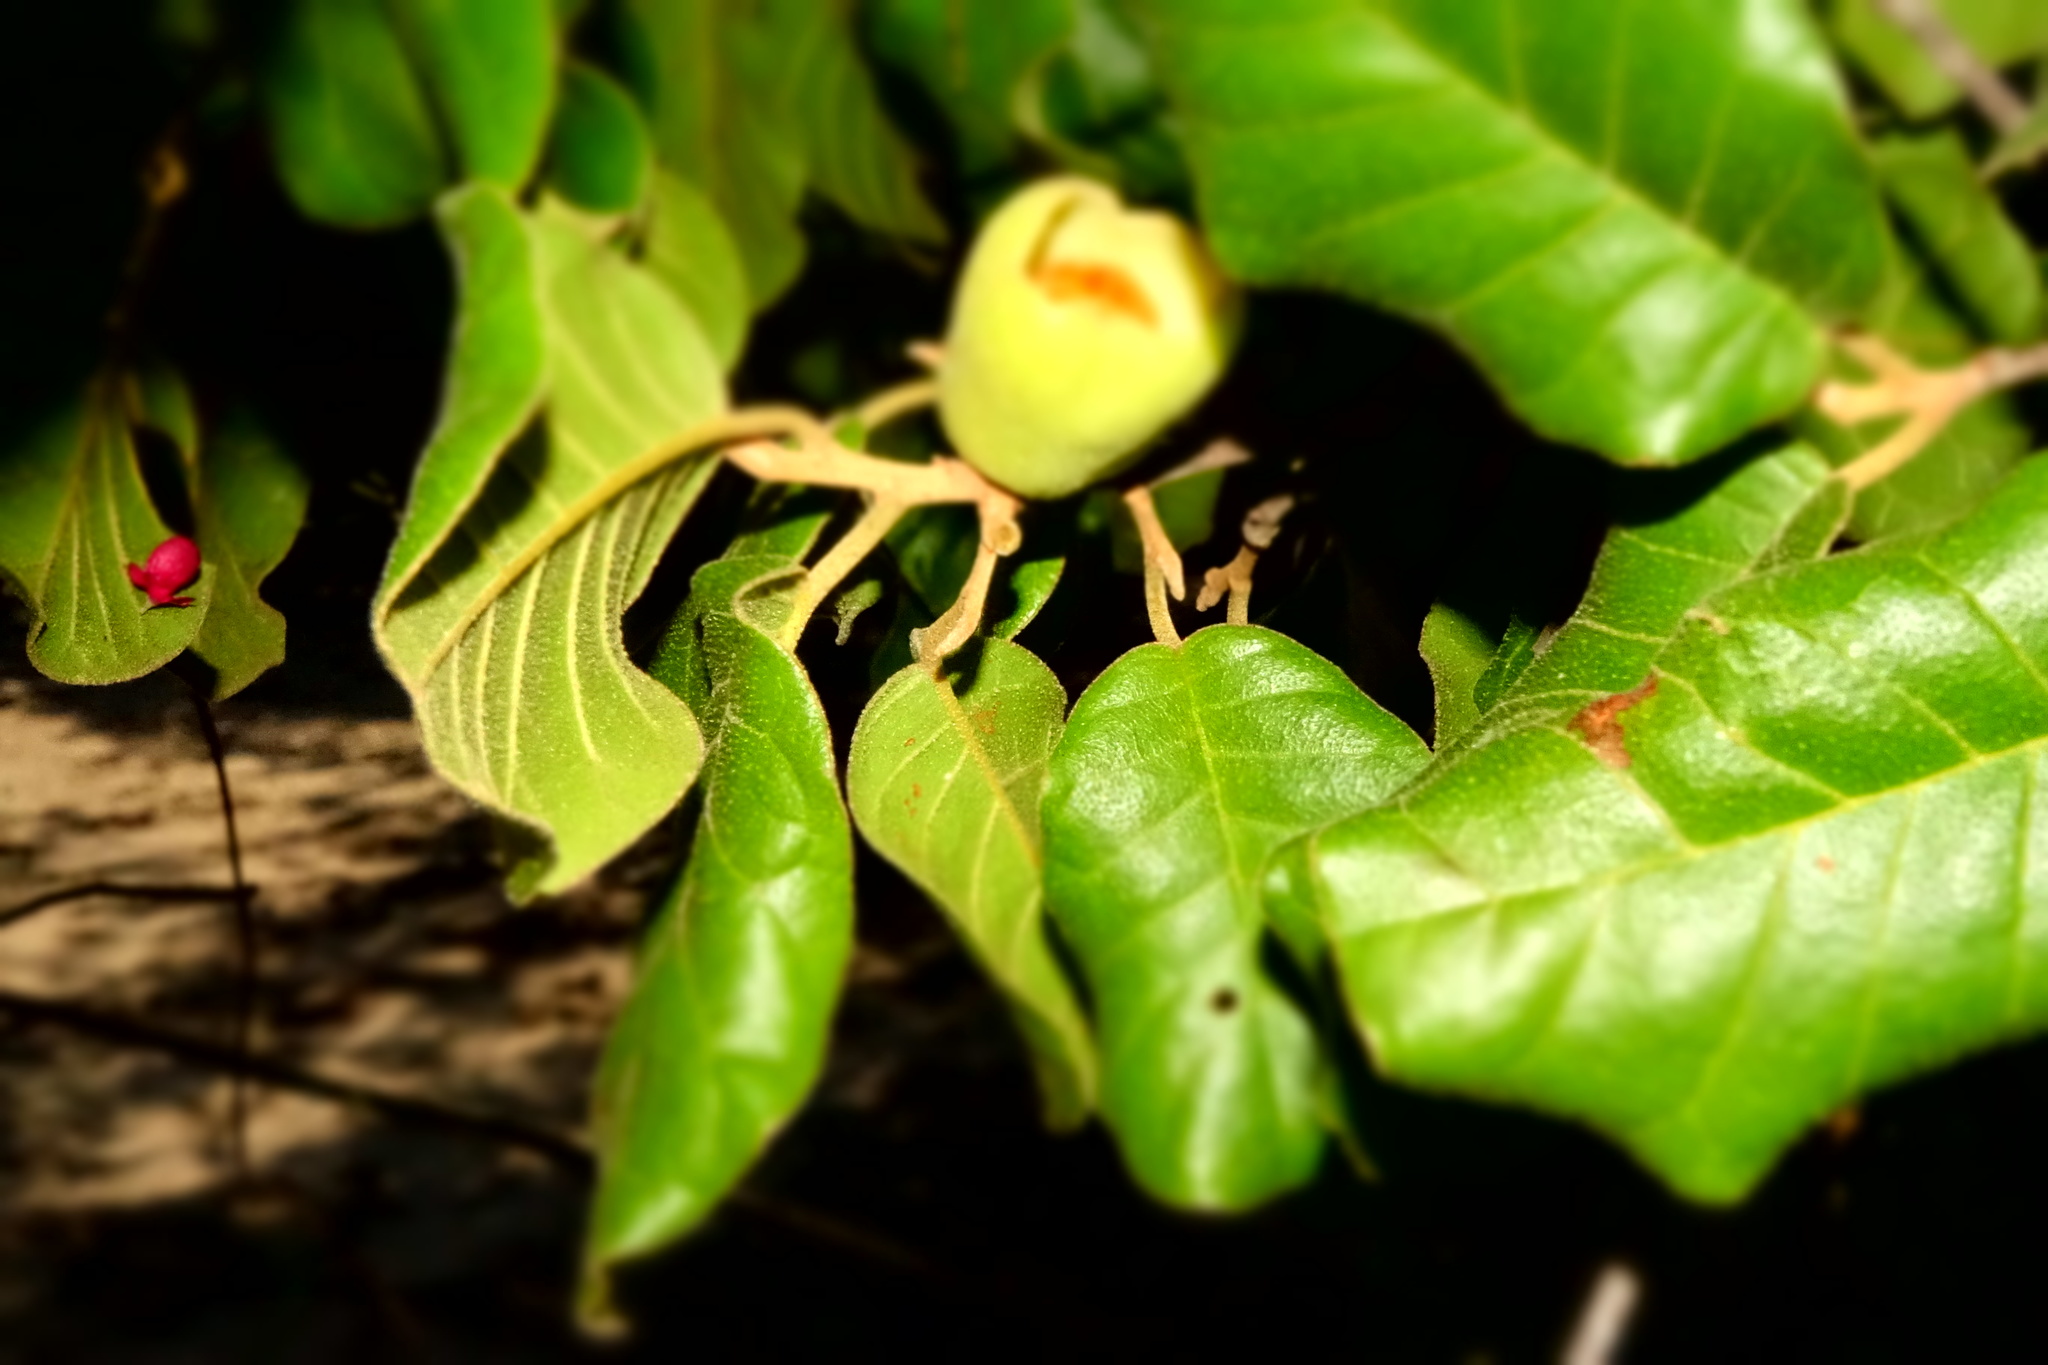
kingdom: Plantae
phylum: Tracheophyta
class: Magnoliopsida
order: Malvales
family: Sarcolaenaceae
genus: Perrierodendron
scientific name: Perrierodendron boinense
